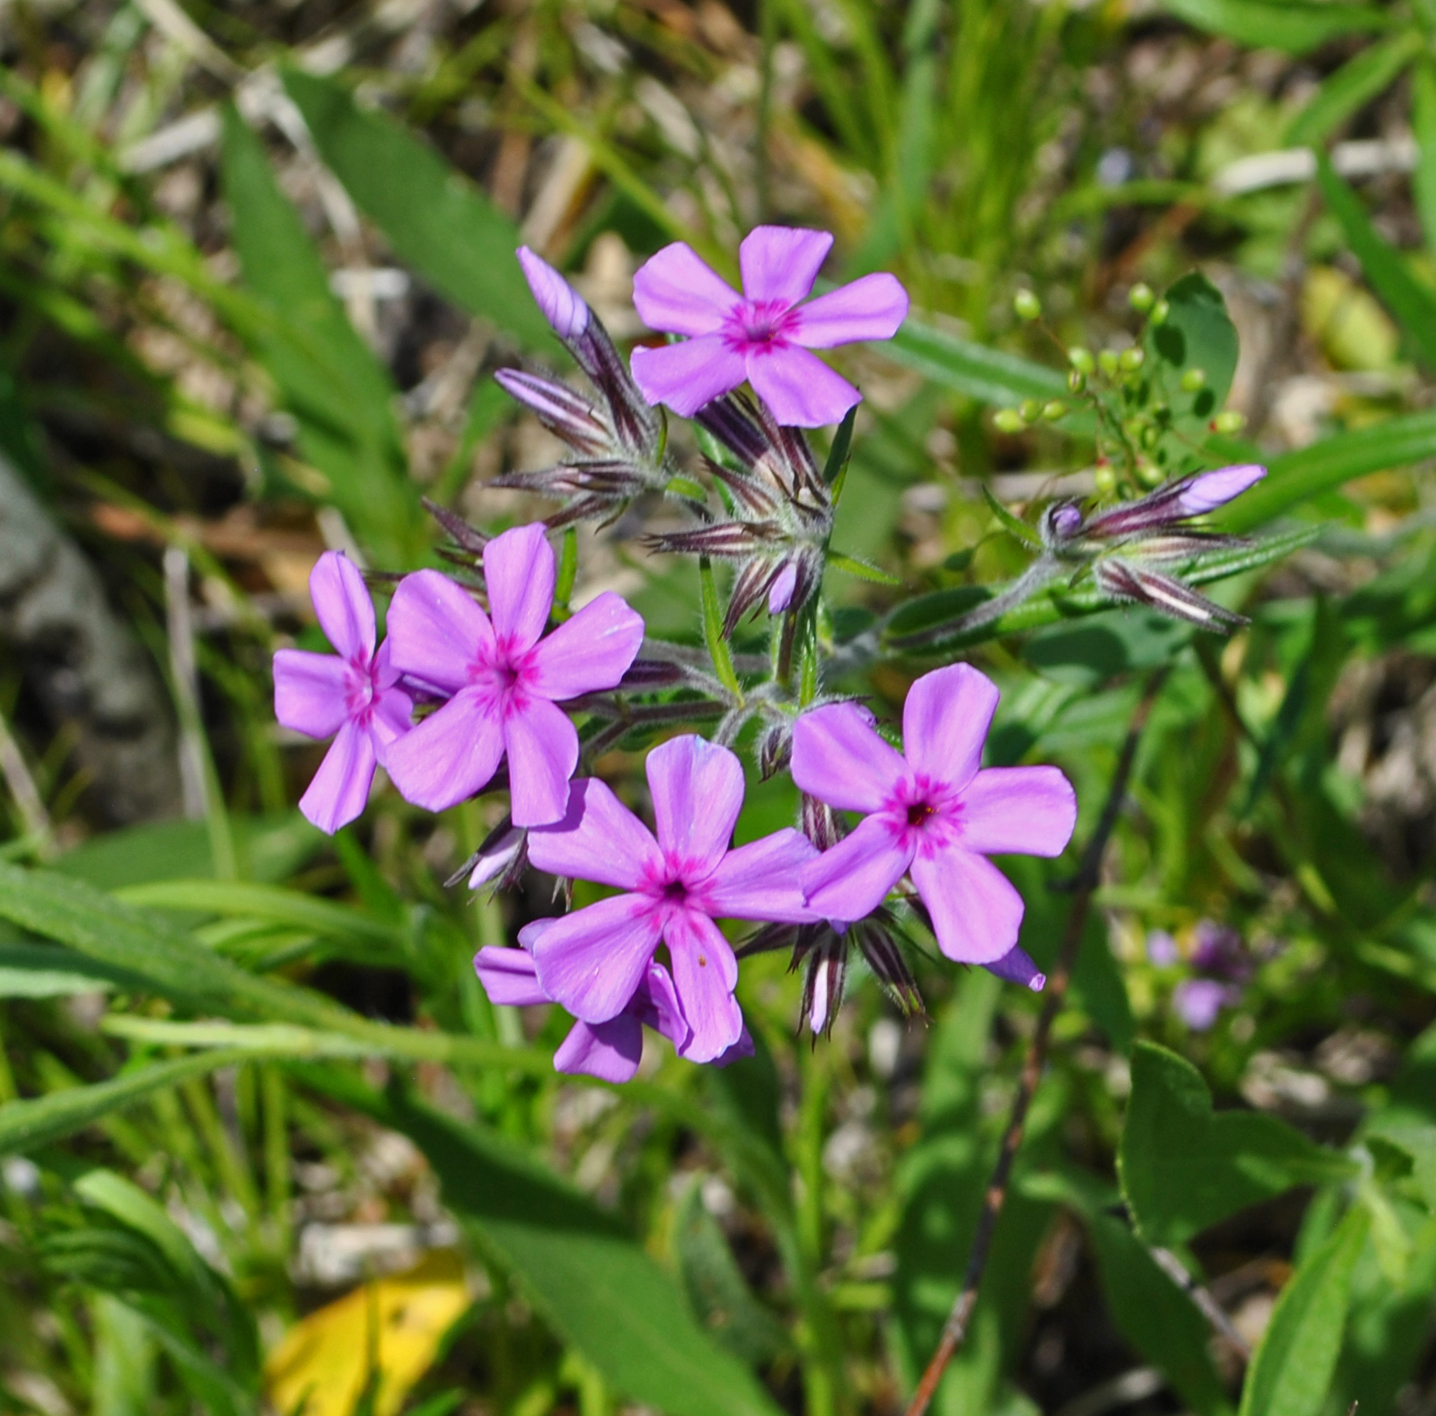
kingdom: Plantae
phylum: Tracheophyta
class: Magnoliopsida
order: Ericales
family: Polemoniaceae
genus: Phlox
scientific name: Phlox pilosa
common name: Prairie phlox
